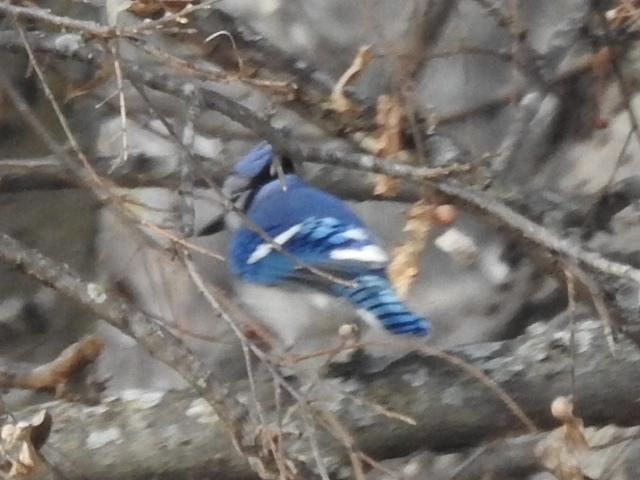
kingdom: Animalia
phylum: Chordata
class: Aves
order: Passeriformes
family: Corvidae
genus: Cyanocitta
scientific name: Cyanocitta cristata
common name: Blue jay
